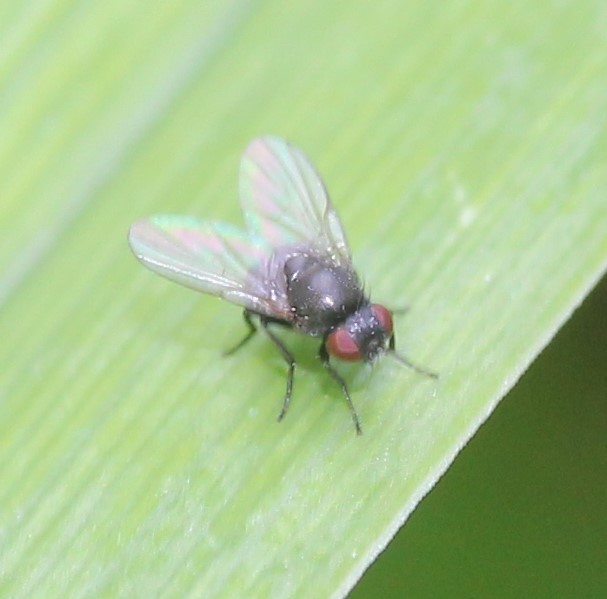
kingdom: Animalia
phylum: Arthropoda
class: Insecta
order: Diptera
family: Agromyzidae
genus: Ophiomyia
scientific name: Ophiomyia kwansonis
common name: Daylily leafminer
